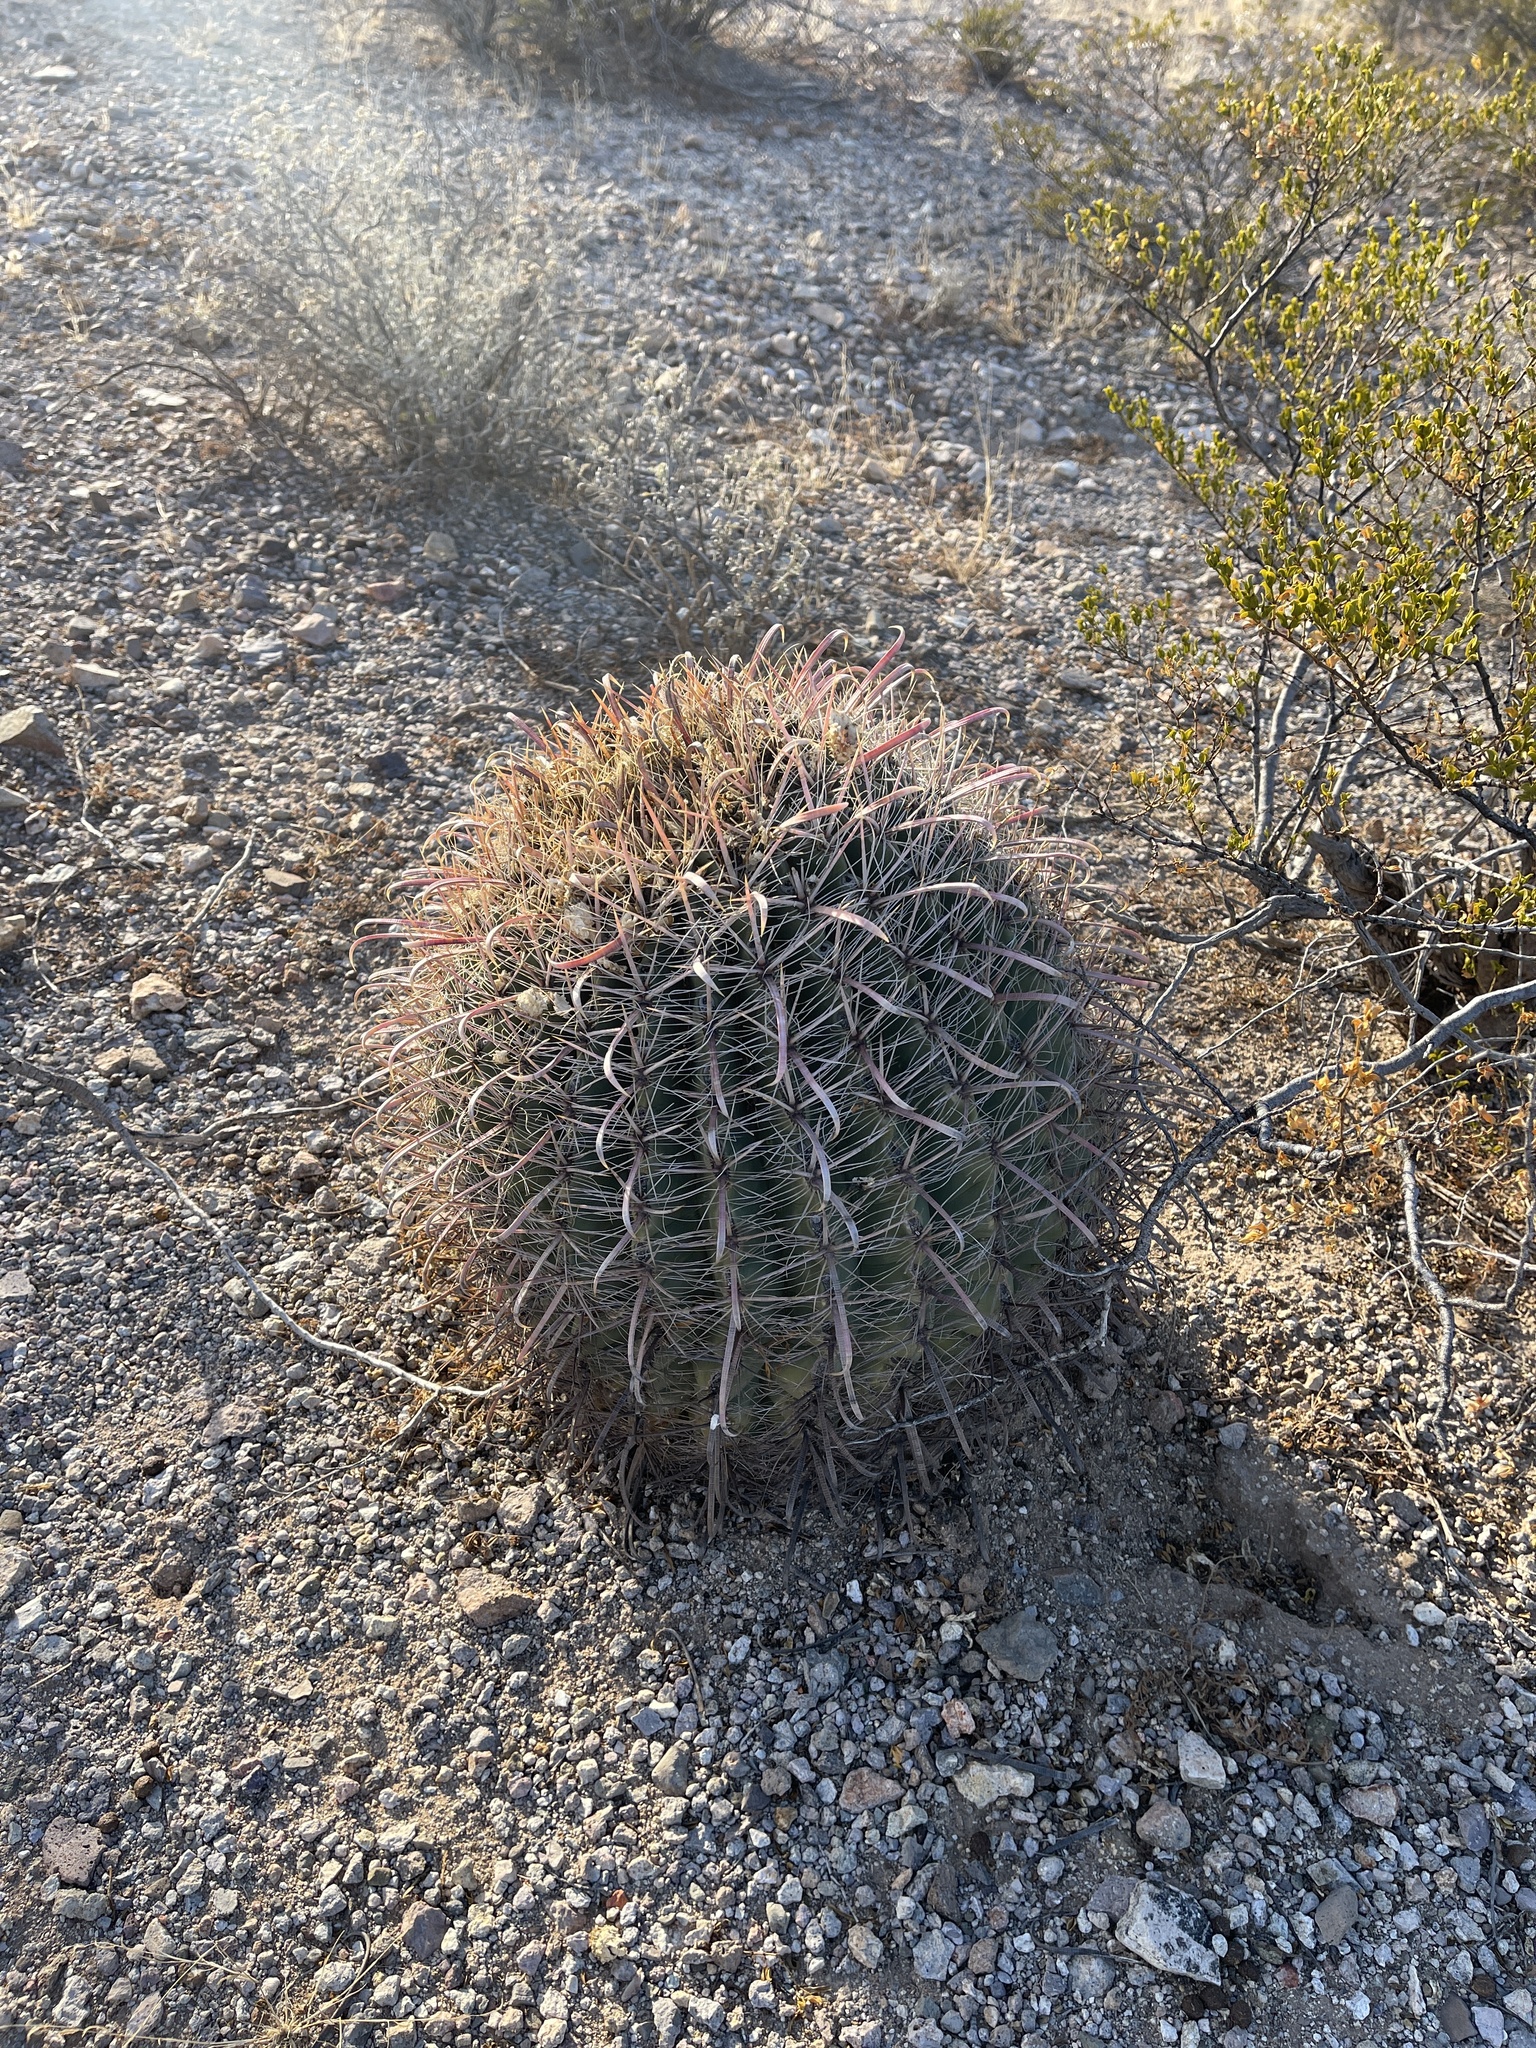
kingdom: Plantae
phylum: Tracheophyta
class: Magnoliopsida
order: Caryophyllales
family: Cactaceae
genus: Ferocactus
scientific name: Ferocactus wislizeni
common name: Candy barrel cactus
